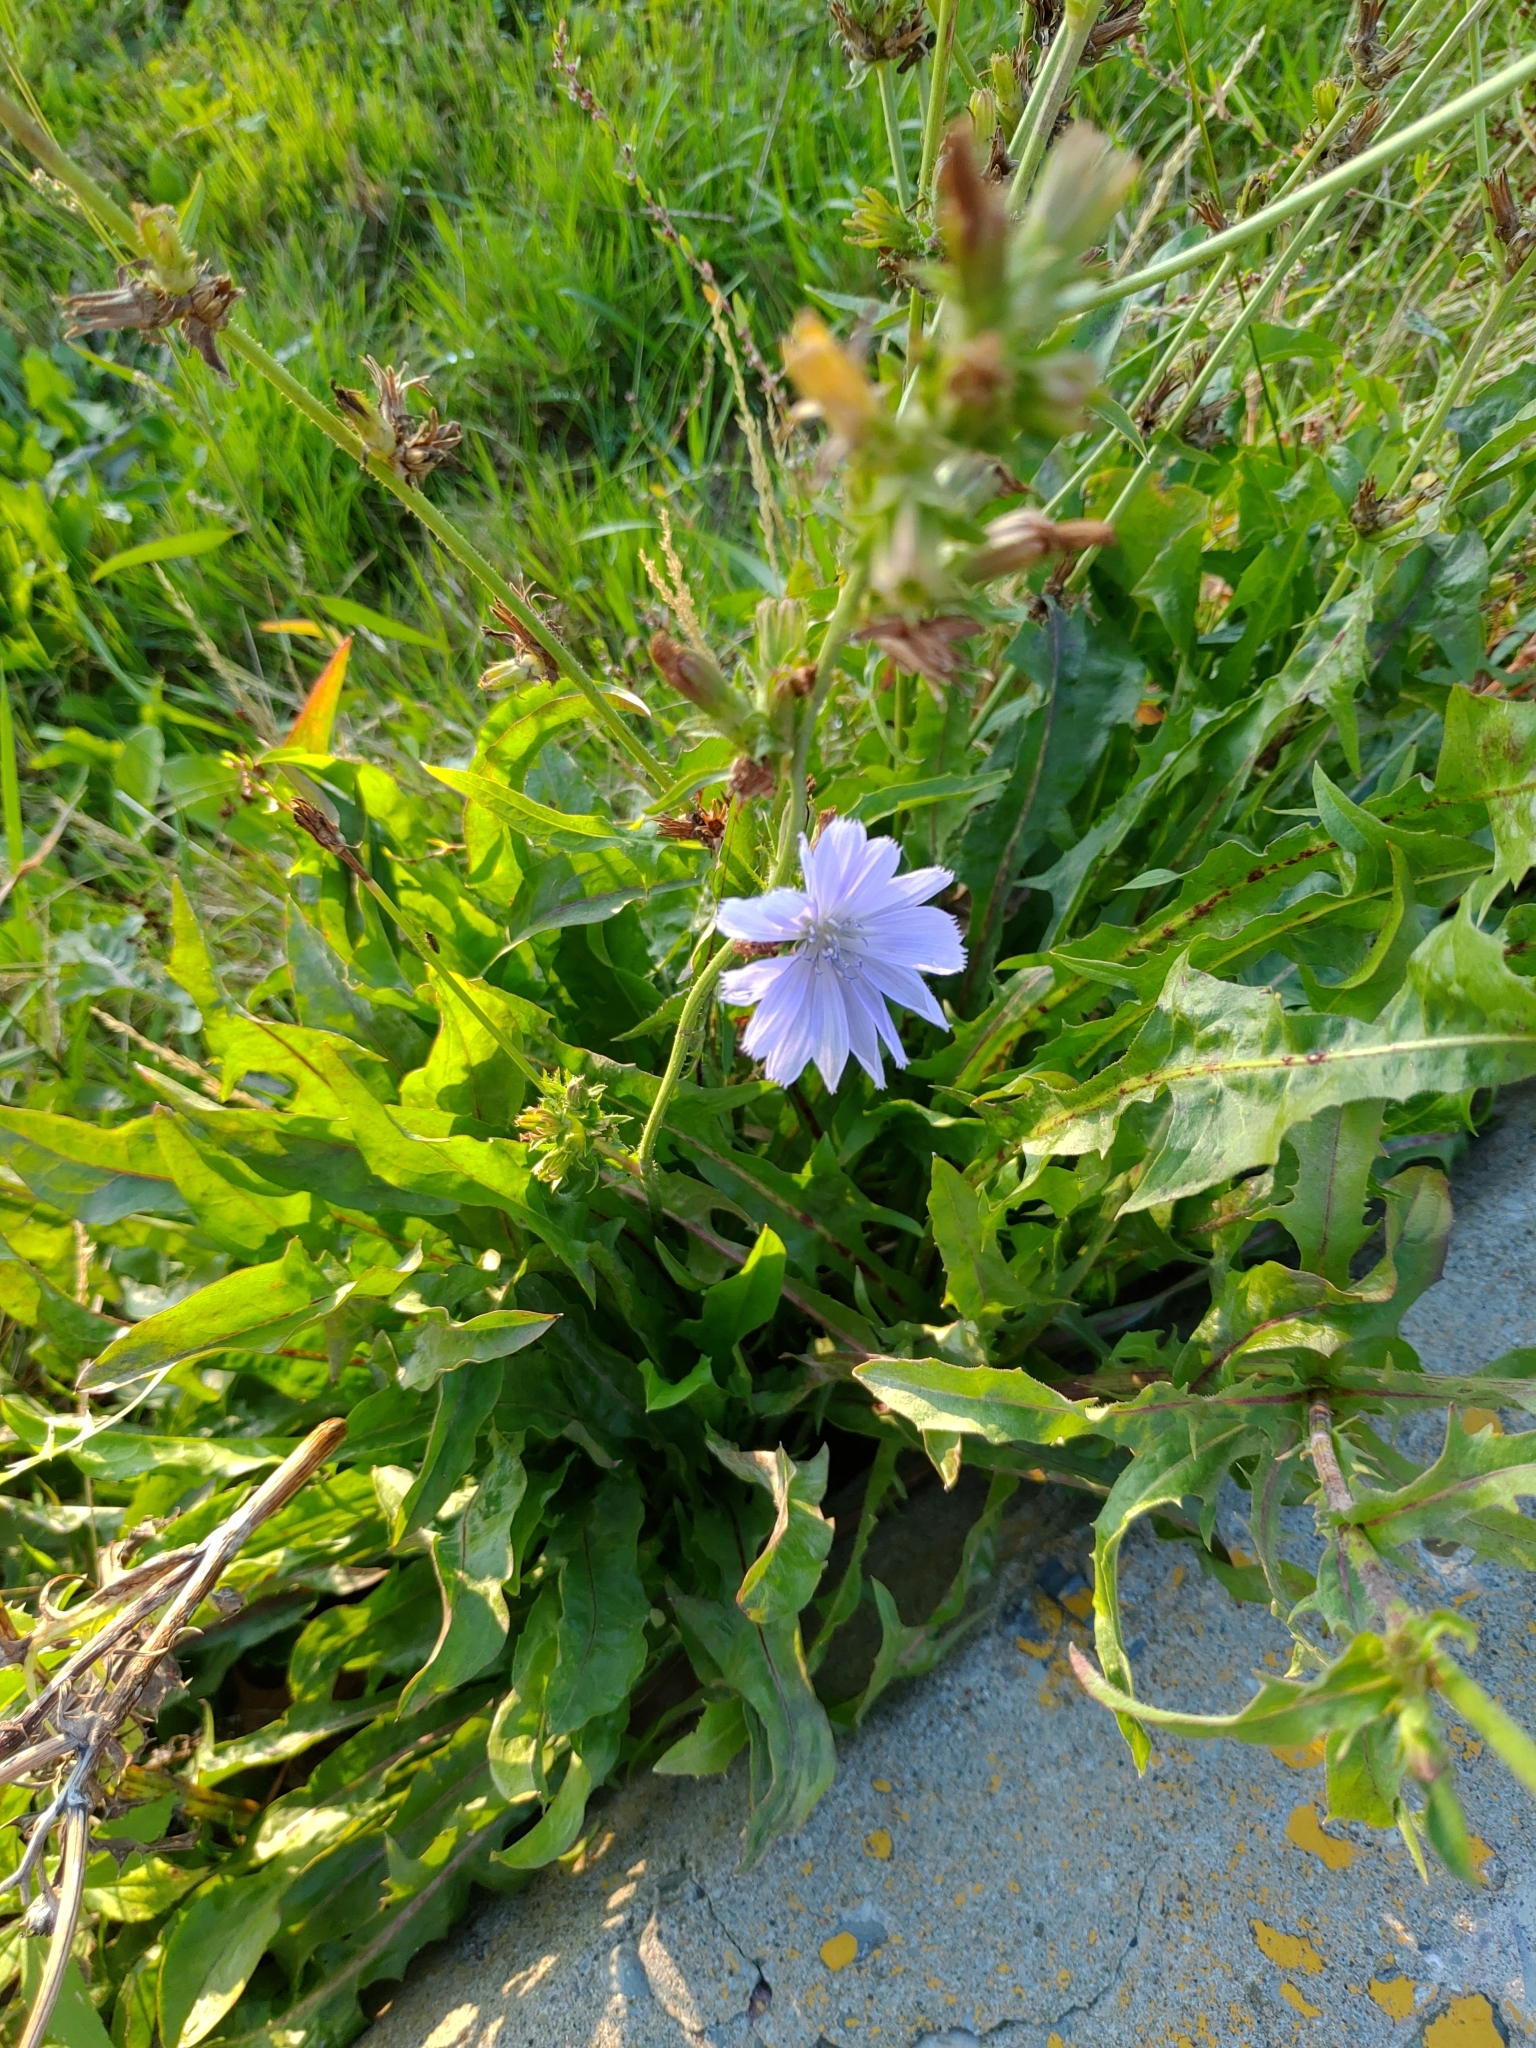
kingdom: Plantae
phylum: Tracheophyta
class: Magnoliopsida
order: Asterales
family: Asteraceae
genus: Cichorium
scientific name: Cichorium intybus
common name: Chicory
